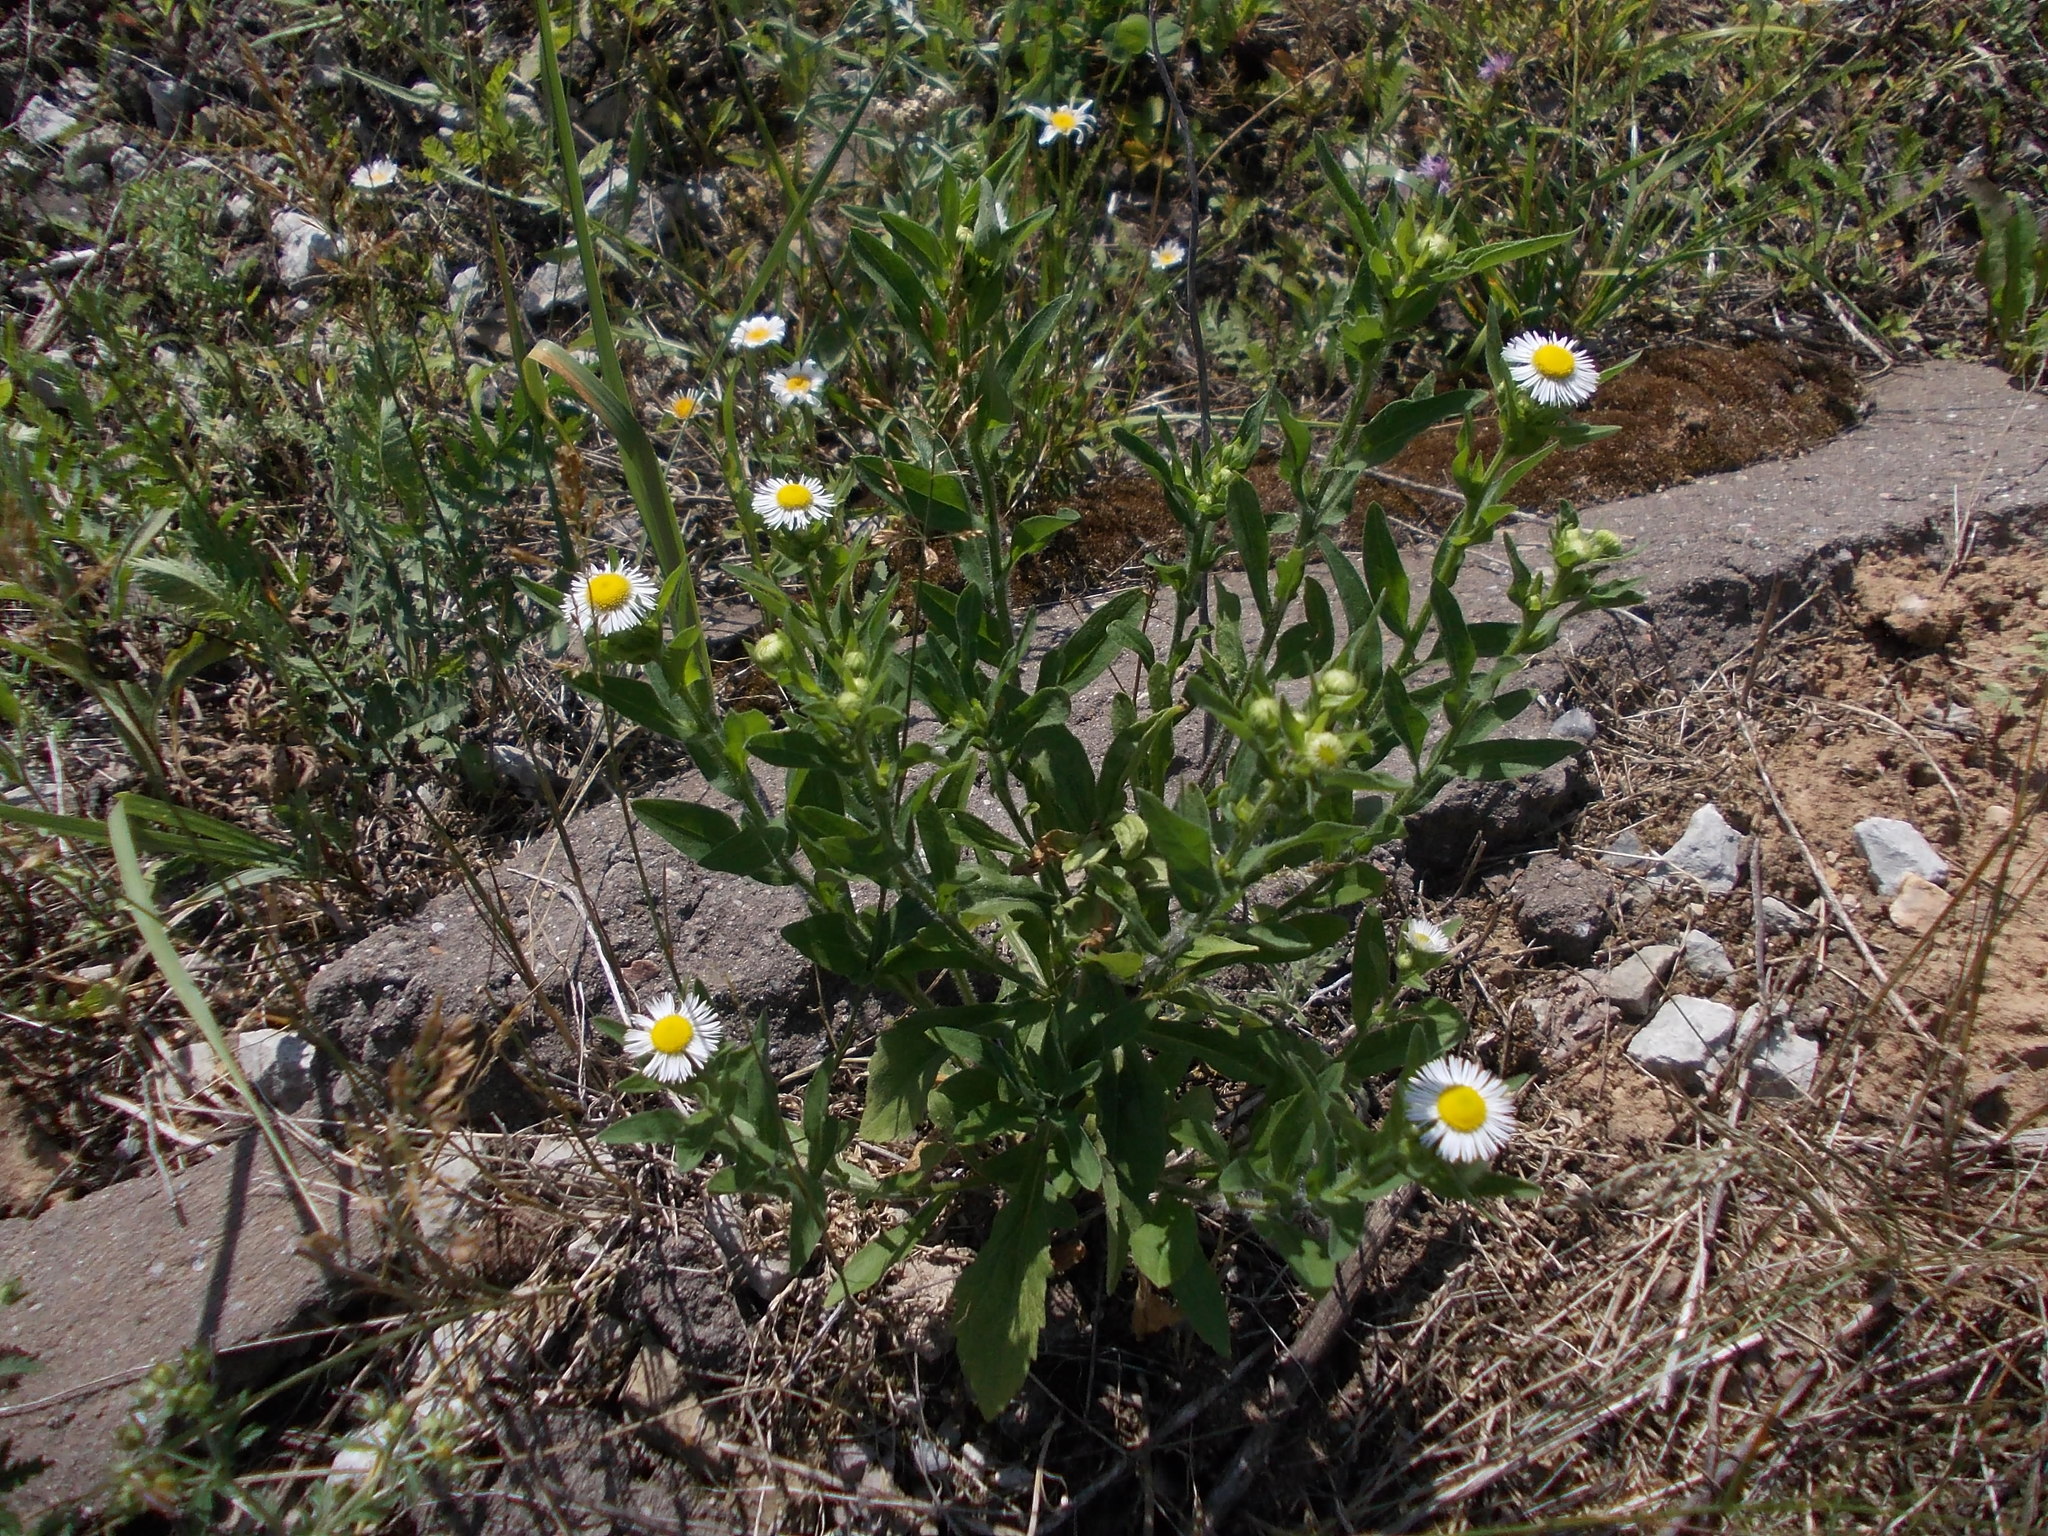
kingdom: Plantae
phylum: Tracheophyta
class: Magnoliopsida
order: Asterales
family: Asteraceae
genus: Erigeron
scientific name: Erigeron annuus
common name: Tall fleabane
